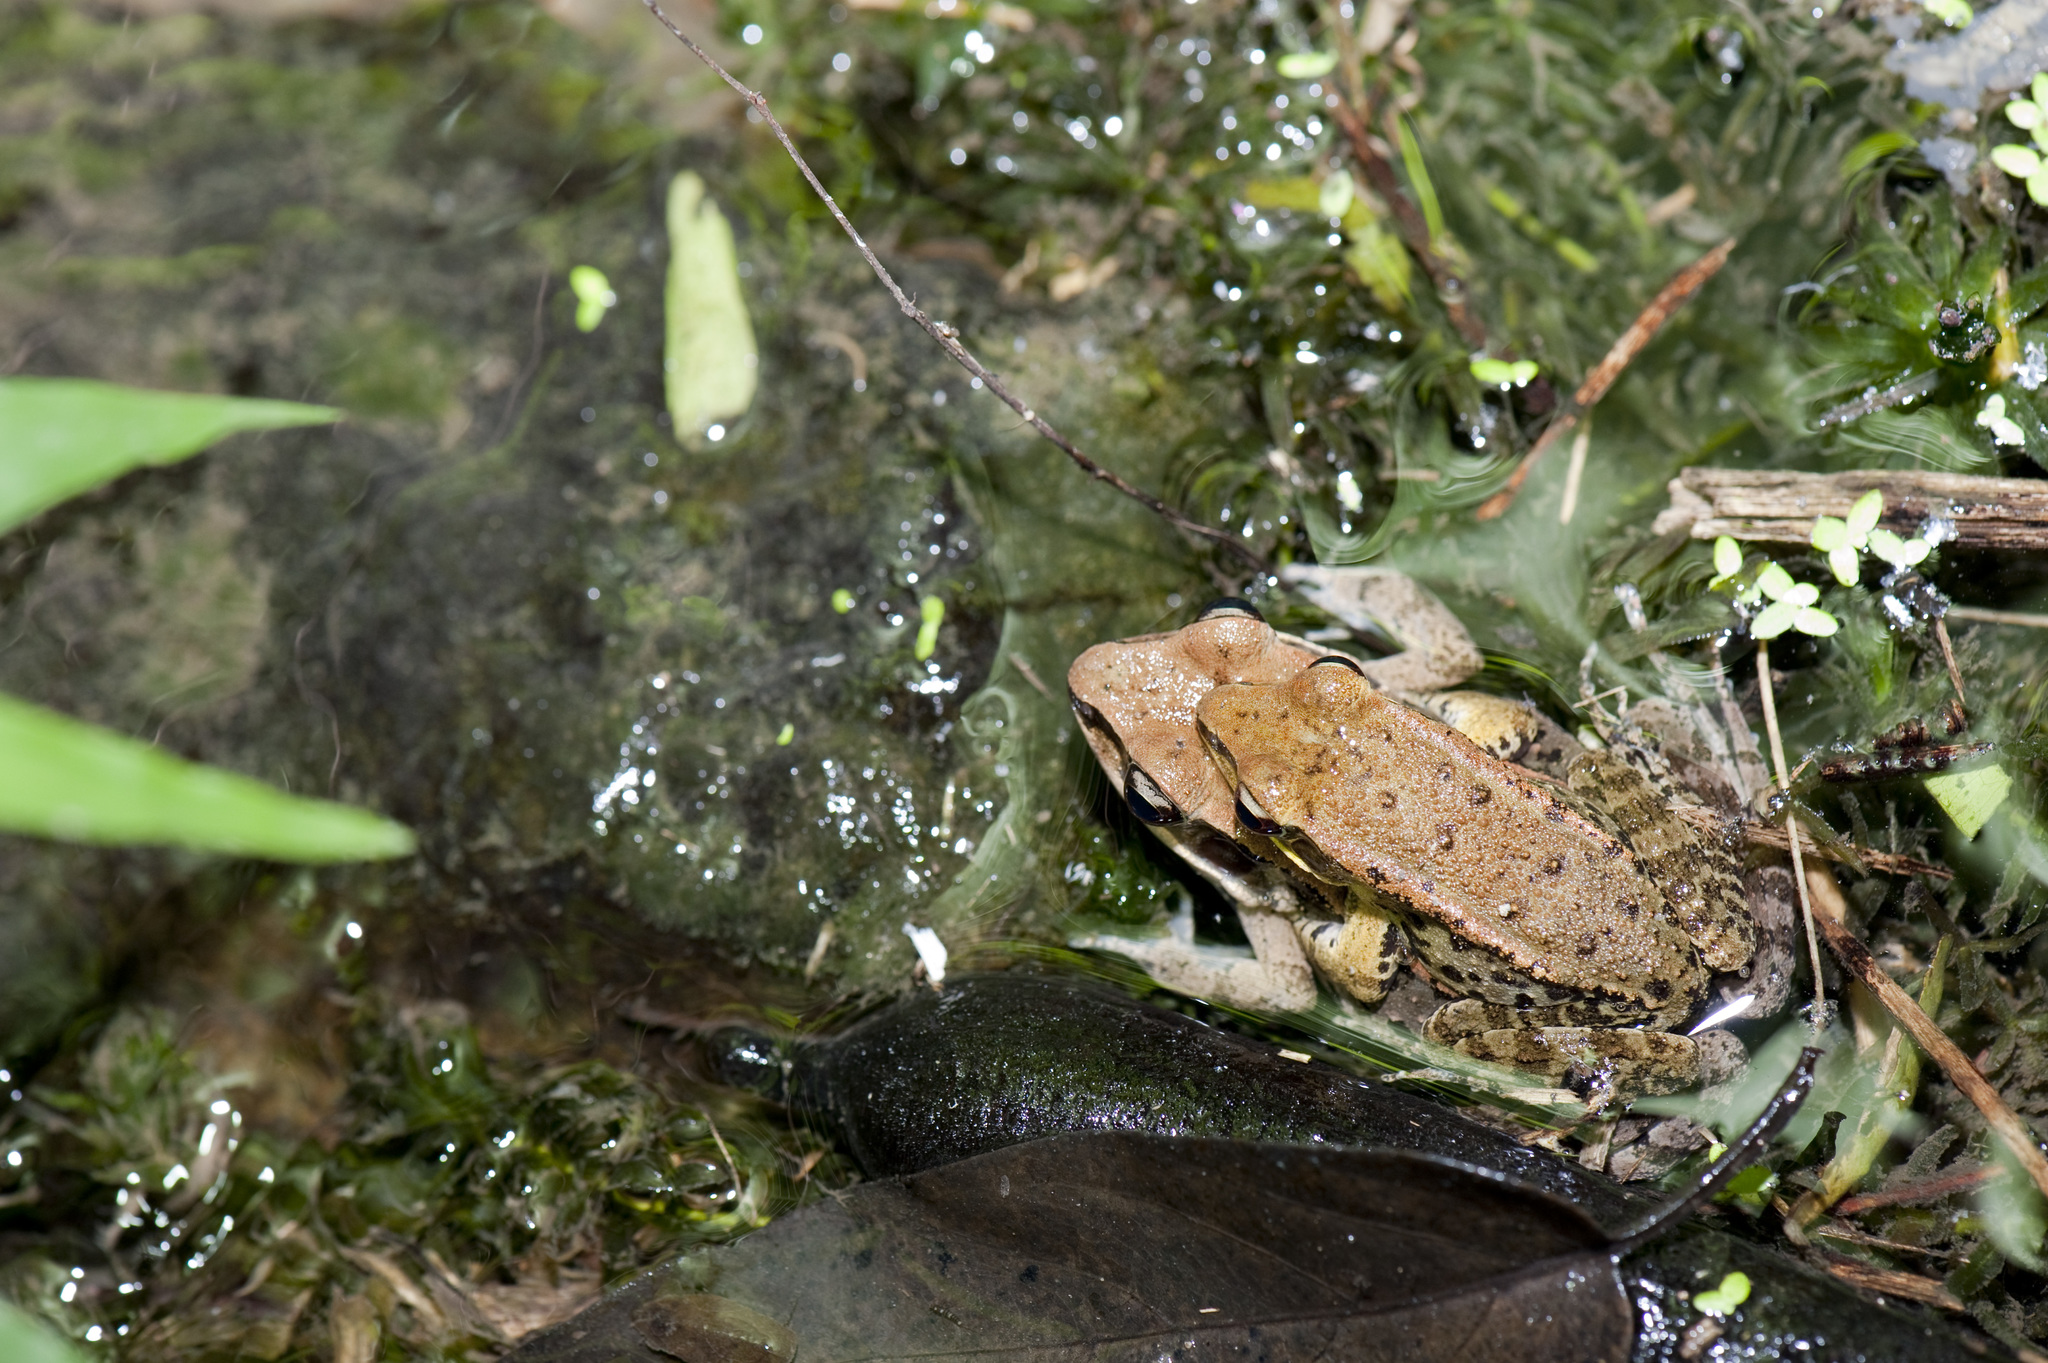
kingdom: Animalia
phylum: Chordata
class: Amphibia
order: Anura
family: Ranidae
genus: Hylarana
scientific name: Hylarana latouchii
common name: Broad-folded frog
